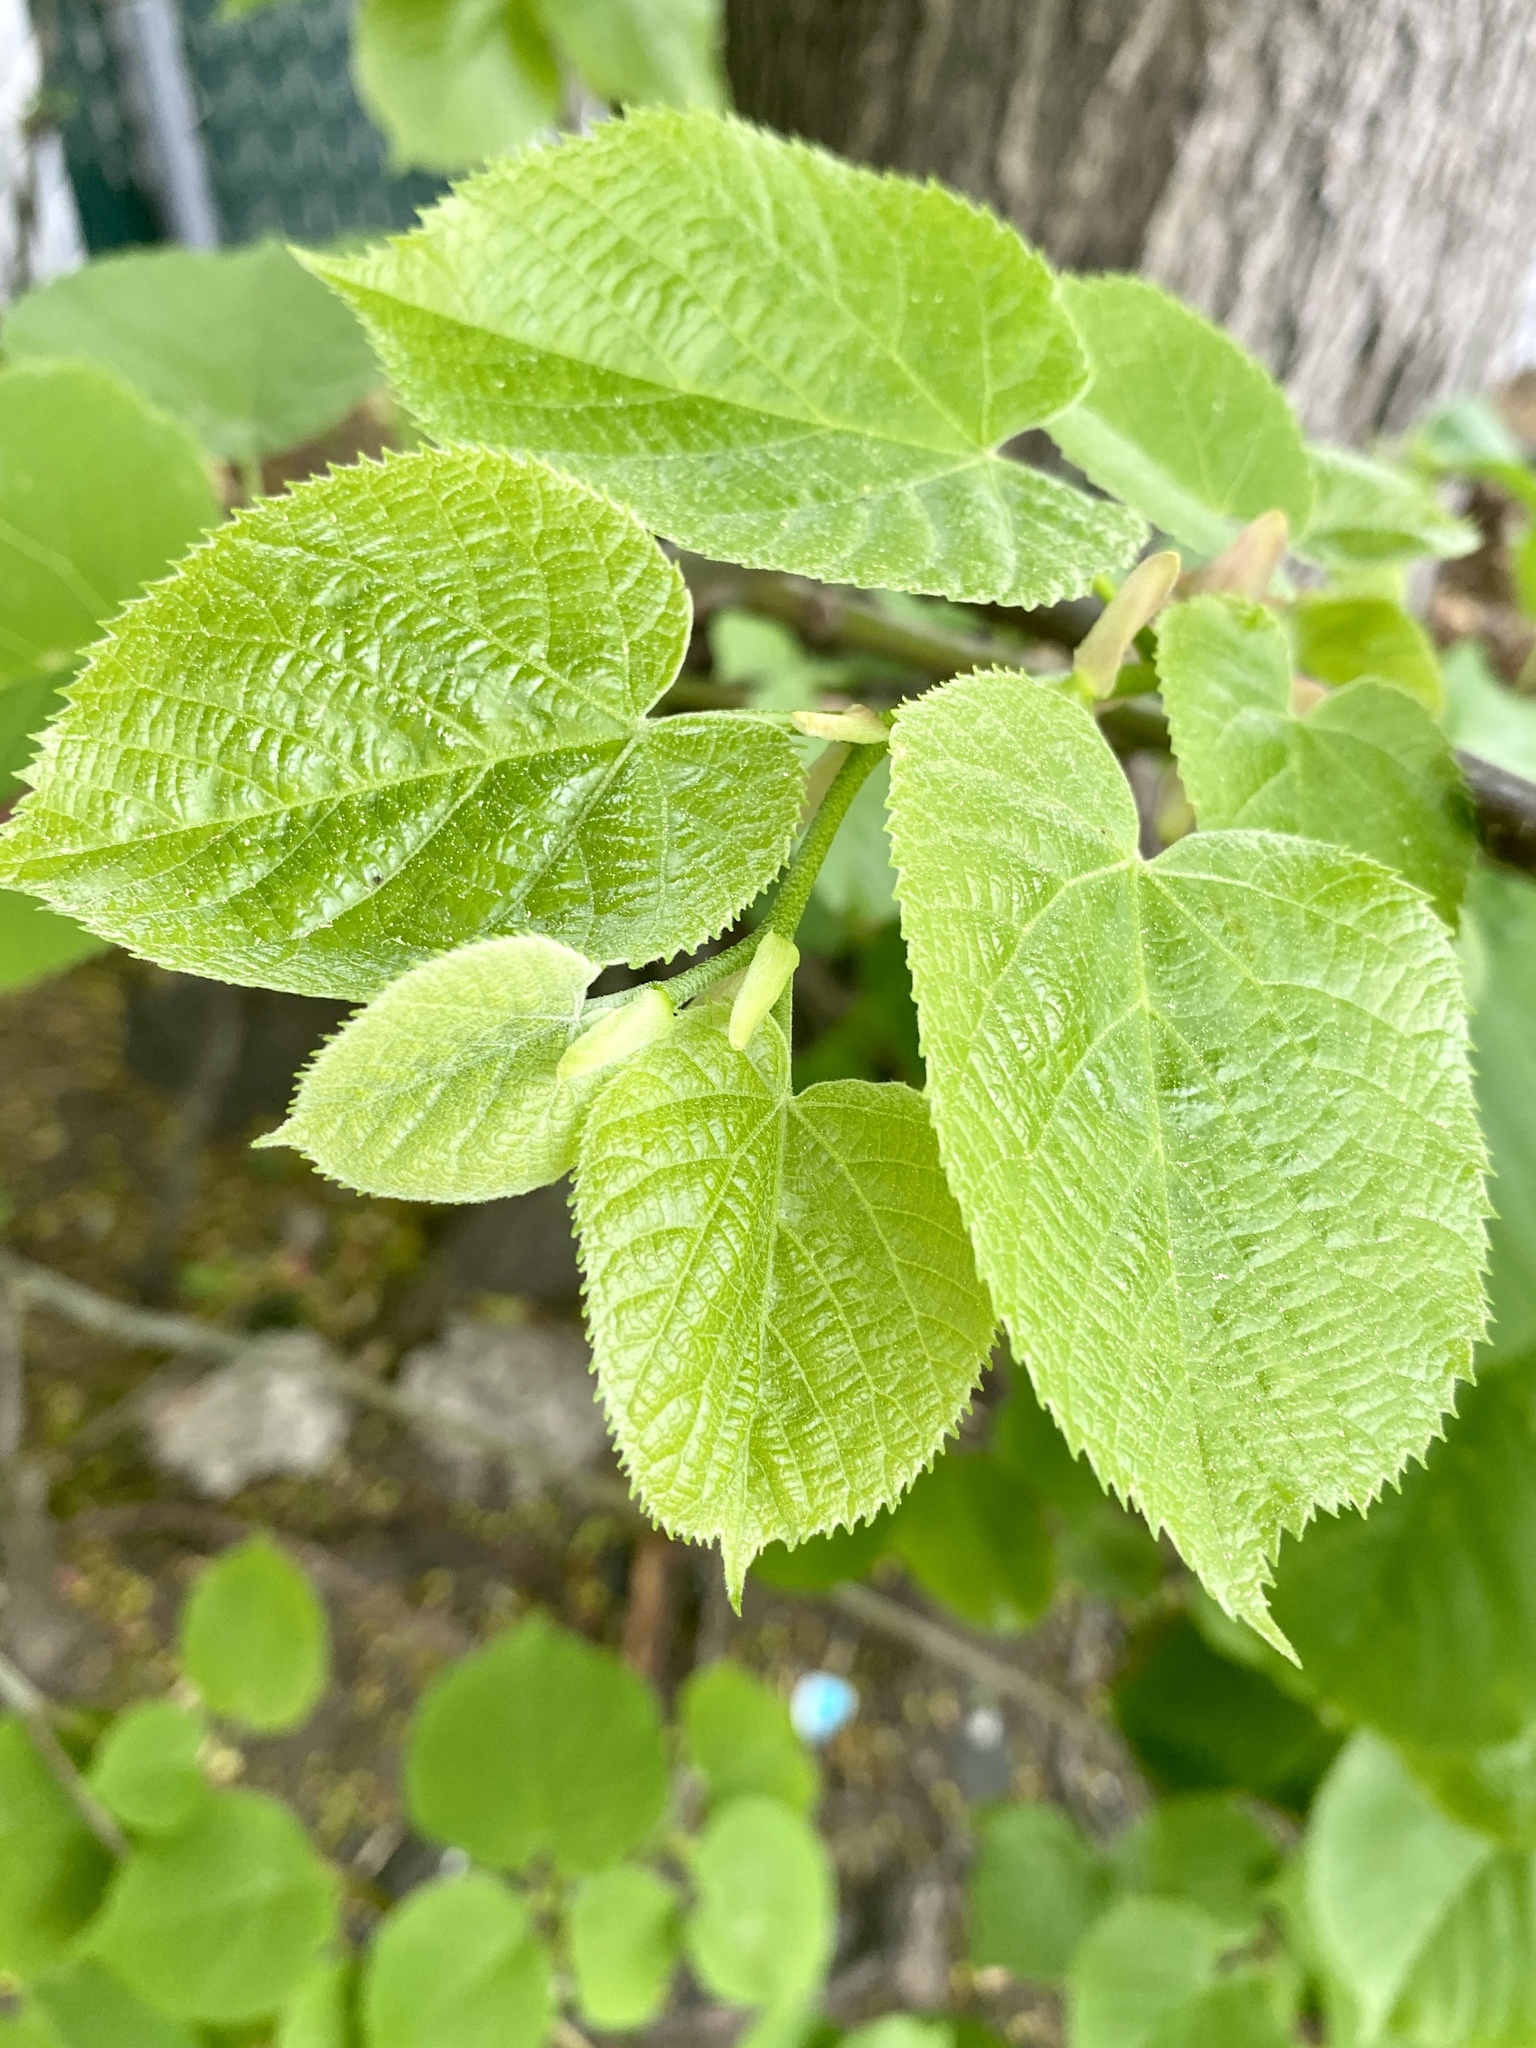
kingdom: Plantae
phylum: Tracheophyta
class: Magnoliopsida
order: Malvales
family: Malvaceae
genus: Tilia
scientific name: Tilia americana
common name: Basswood
